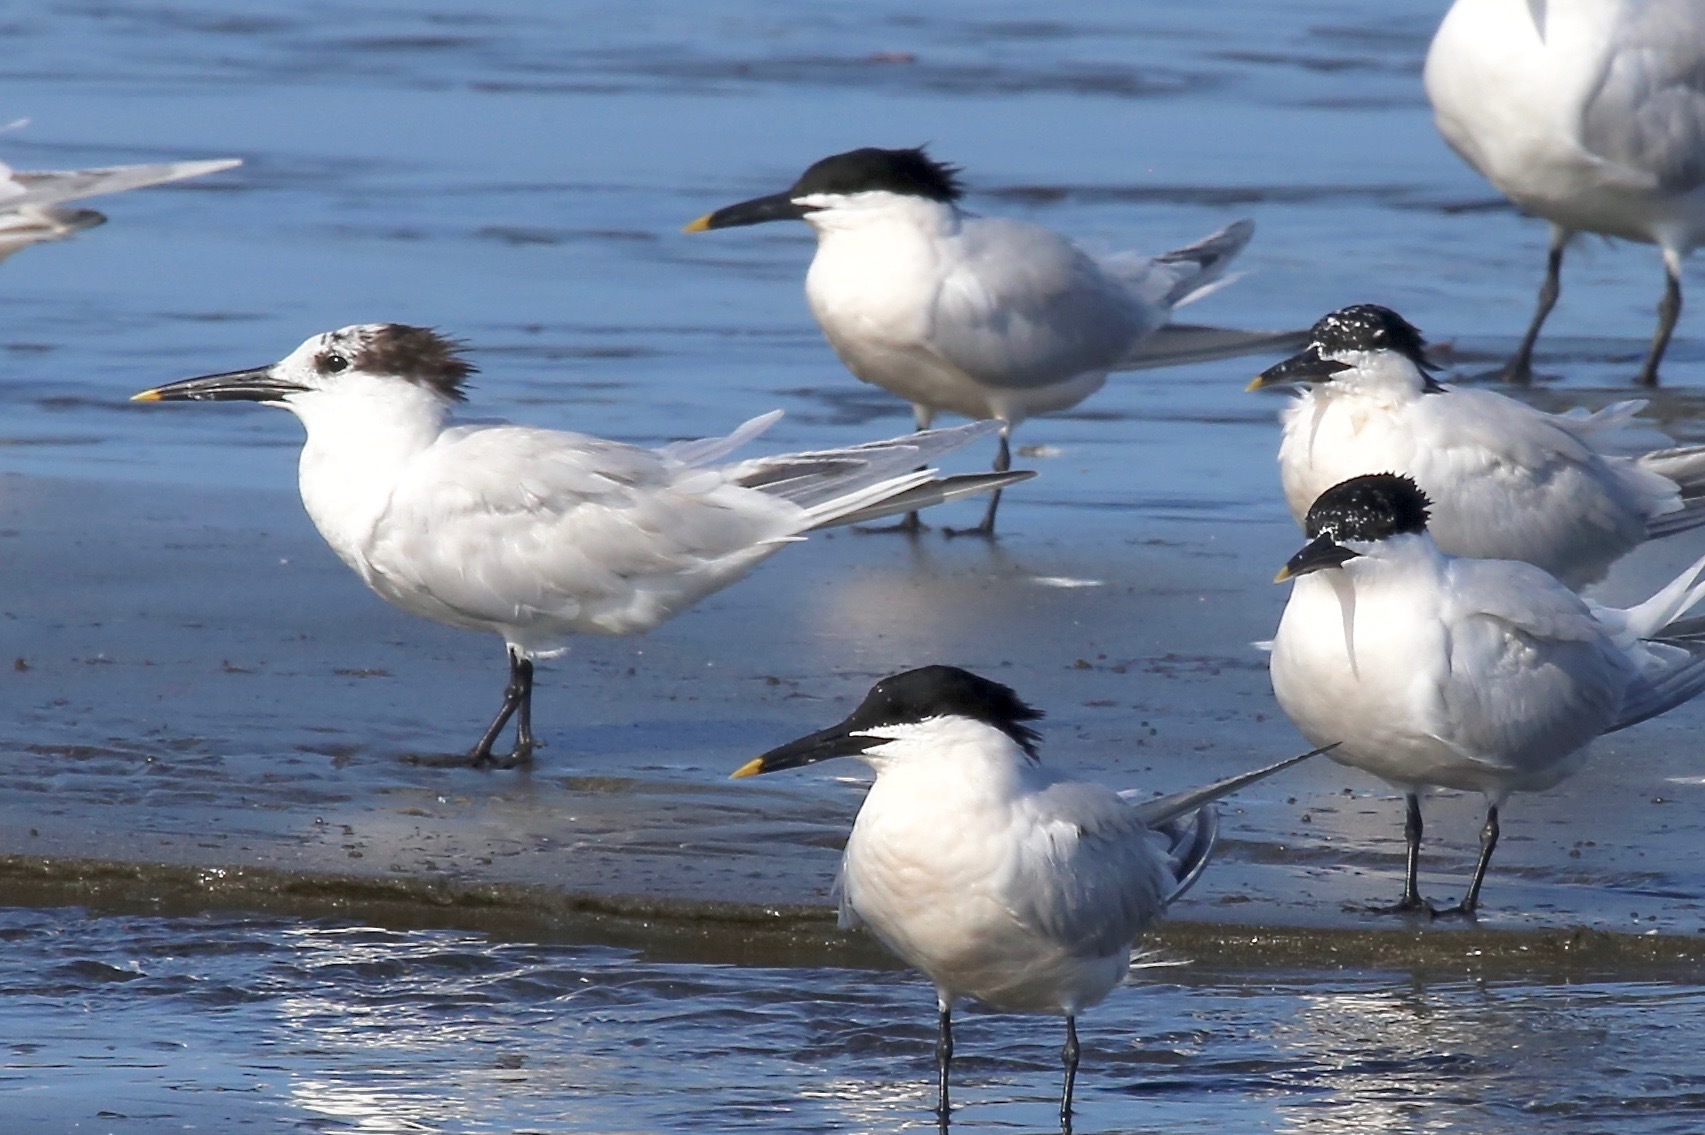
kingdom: Animalia
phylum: Chordata
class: Aves
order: Charadriiformes
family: Laridae
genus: Thalasseus
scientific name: Thalasseus sandvicensis
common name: Sandwich tern
